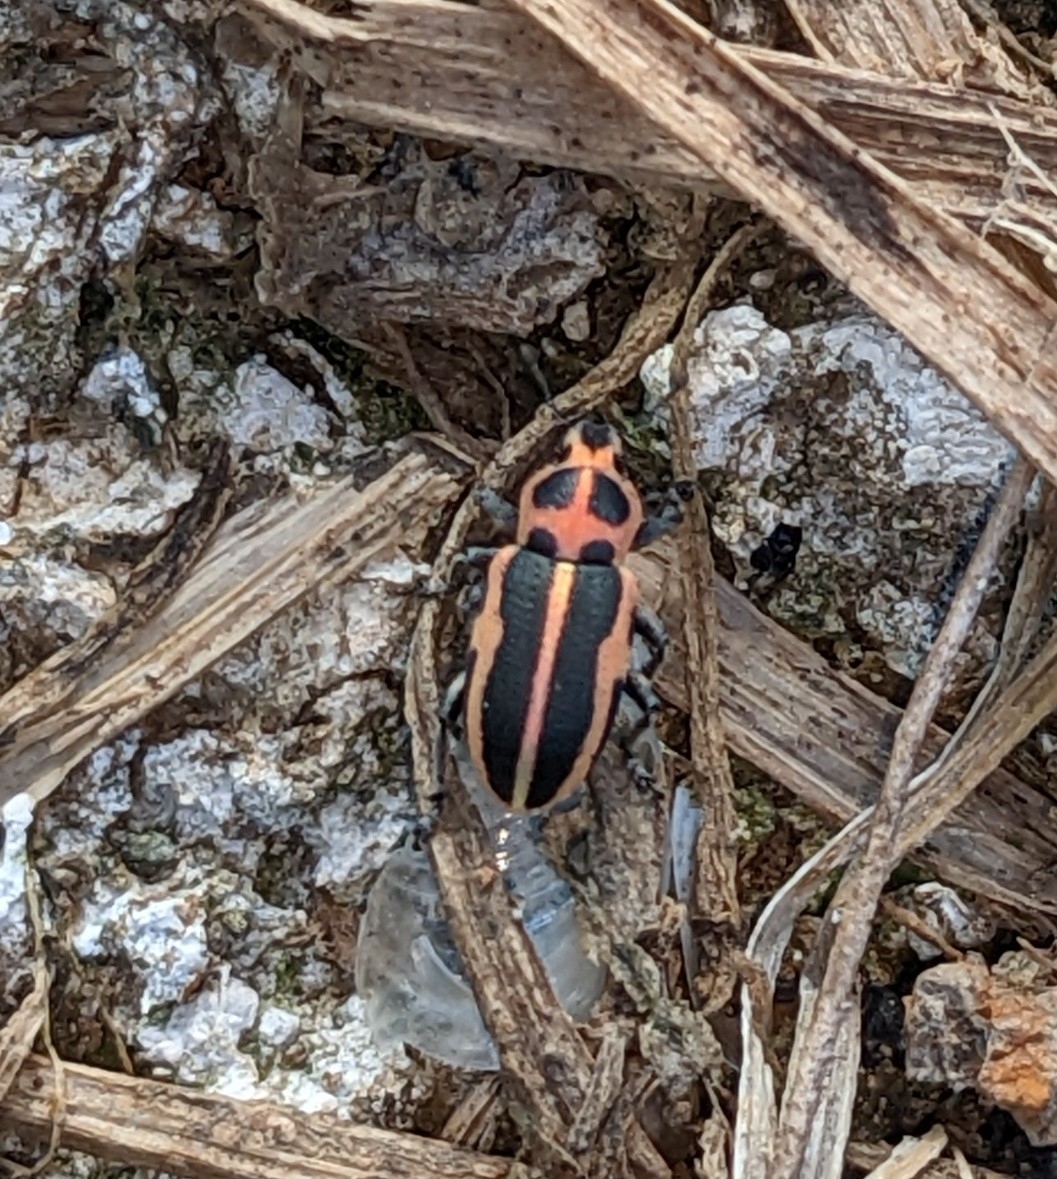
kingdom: Animalia
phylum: Arthropoda
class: Insecta
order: Coleoptera
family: Curculionidae
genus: Eudiagogus
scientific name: Eudiagogus pulcher
